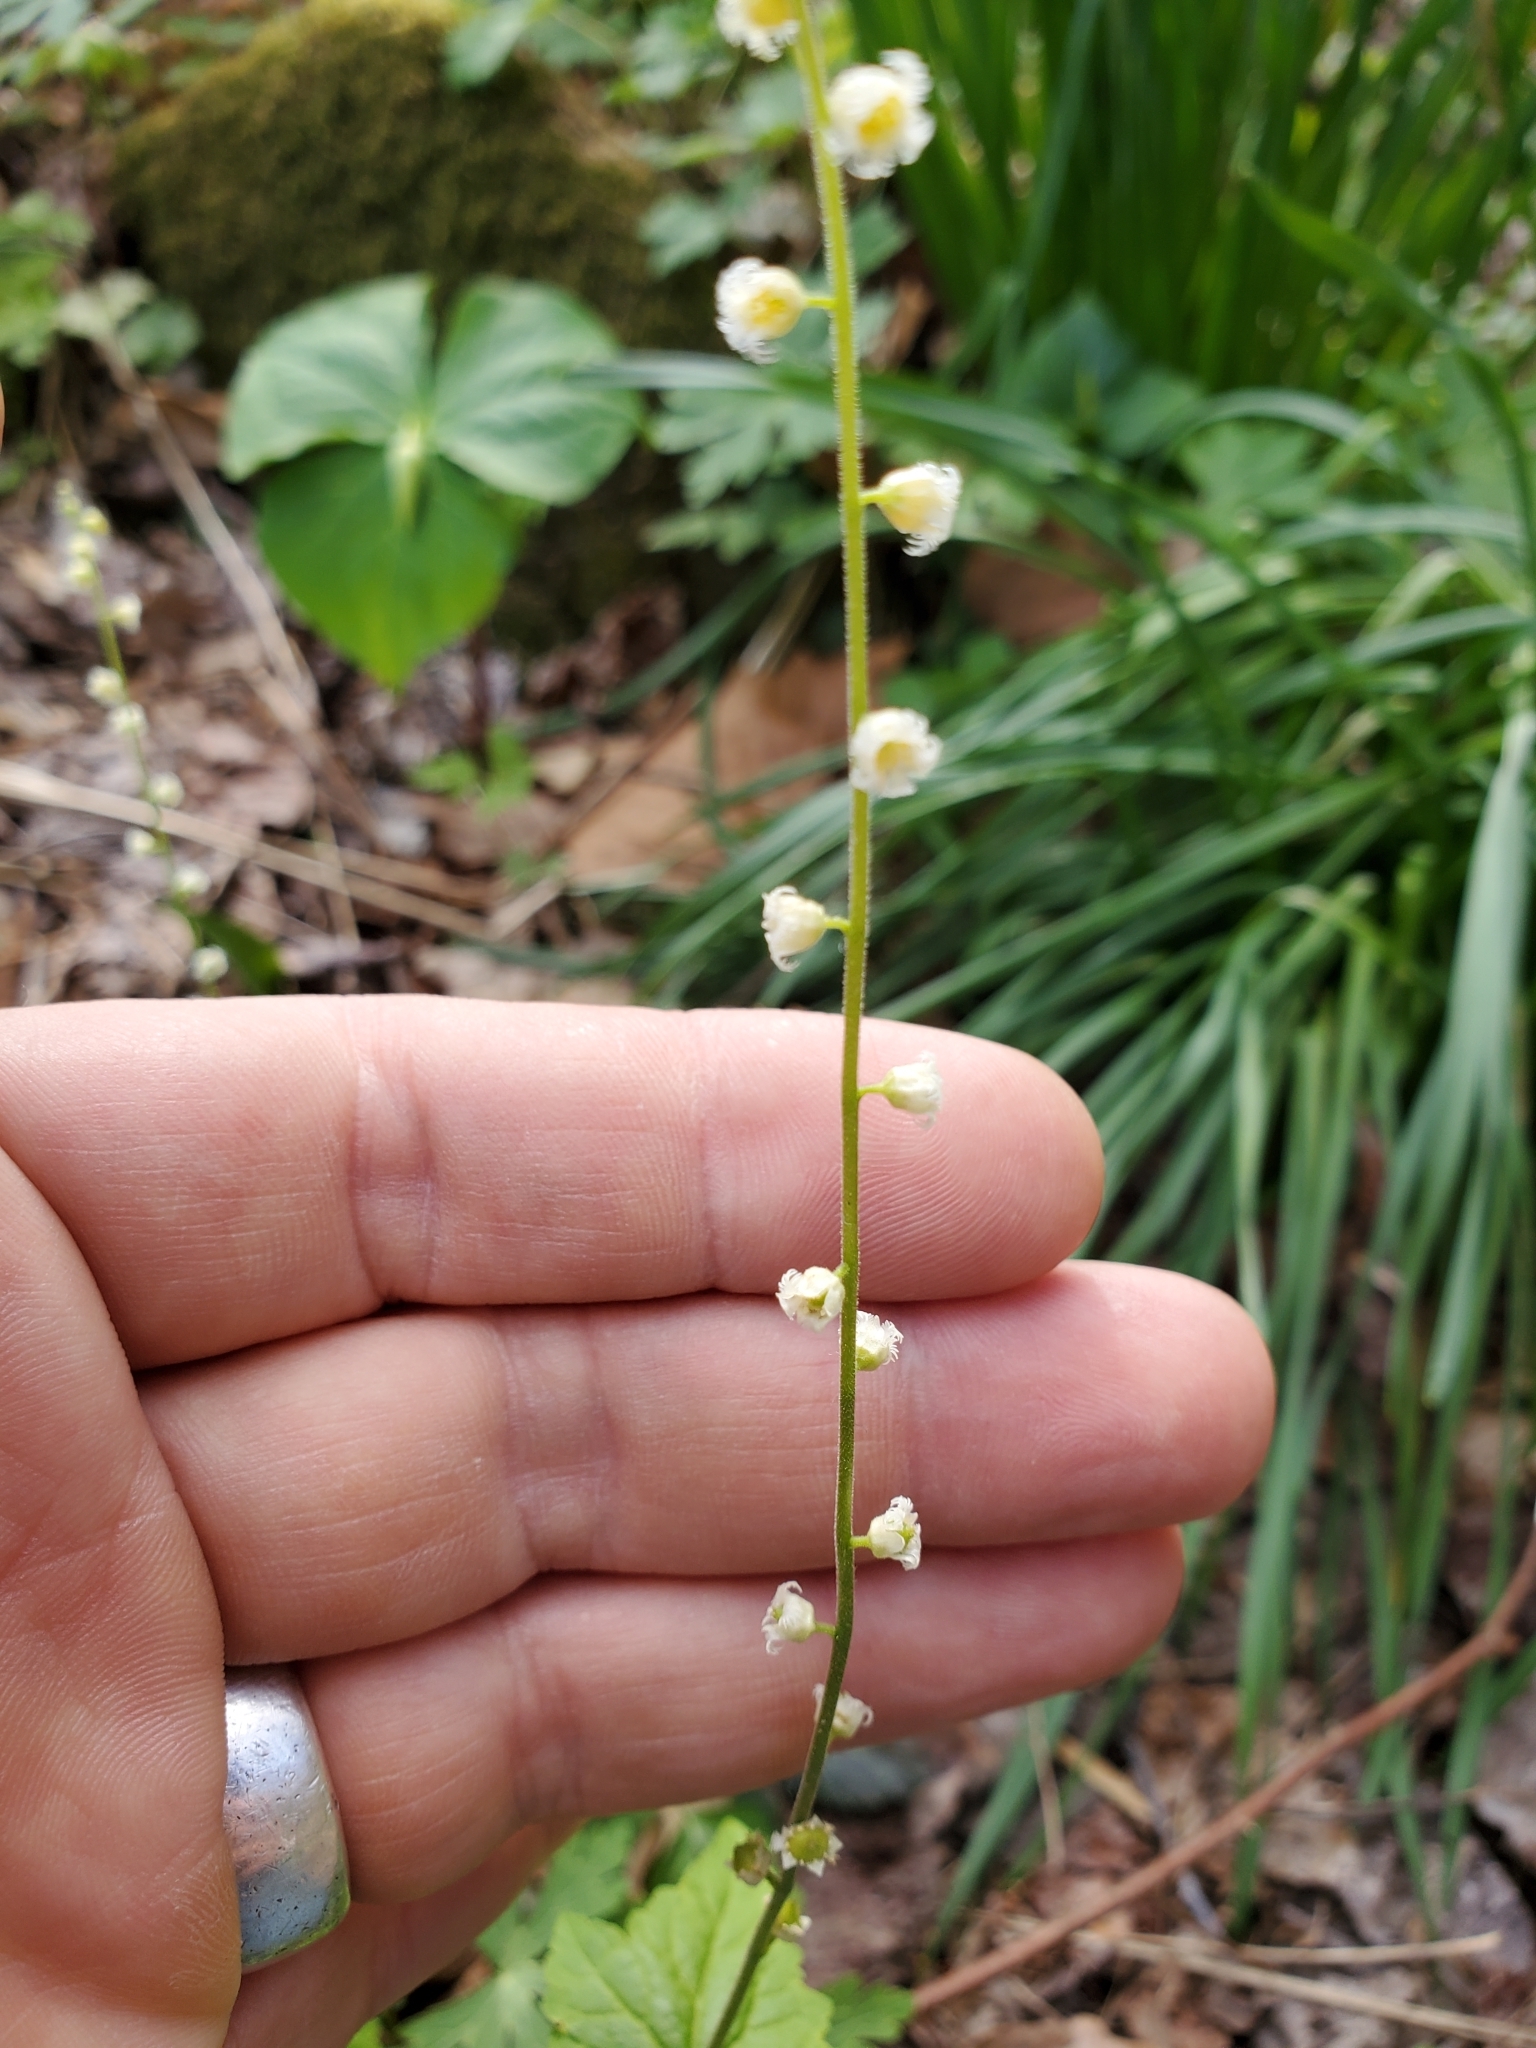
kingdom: Plantae
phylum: Tracheophyta
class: Magnoliopsida
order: Saxifragales
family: Saxifragaceae
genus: Mitella
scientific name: Mitella diphylla
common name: Coolwort
